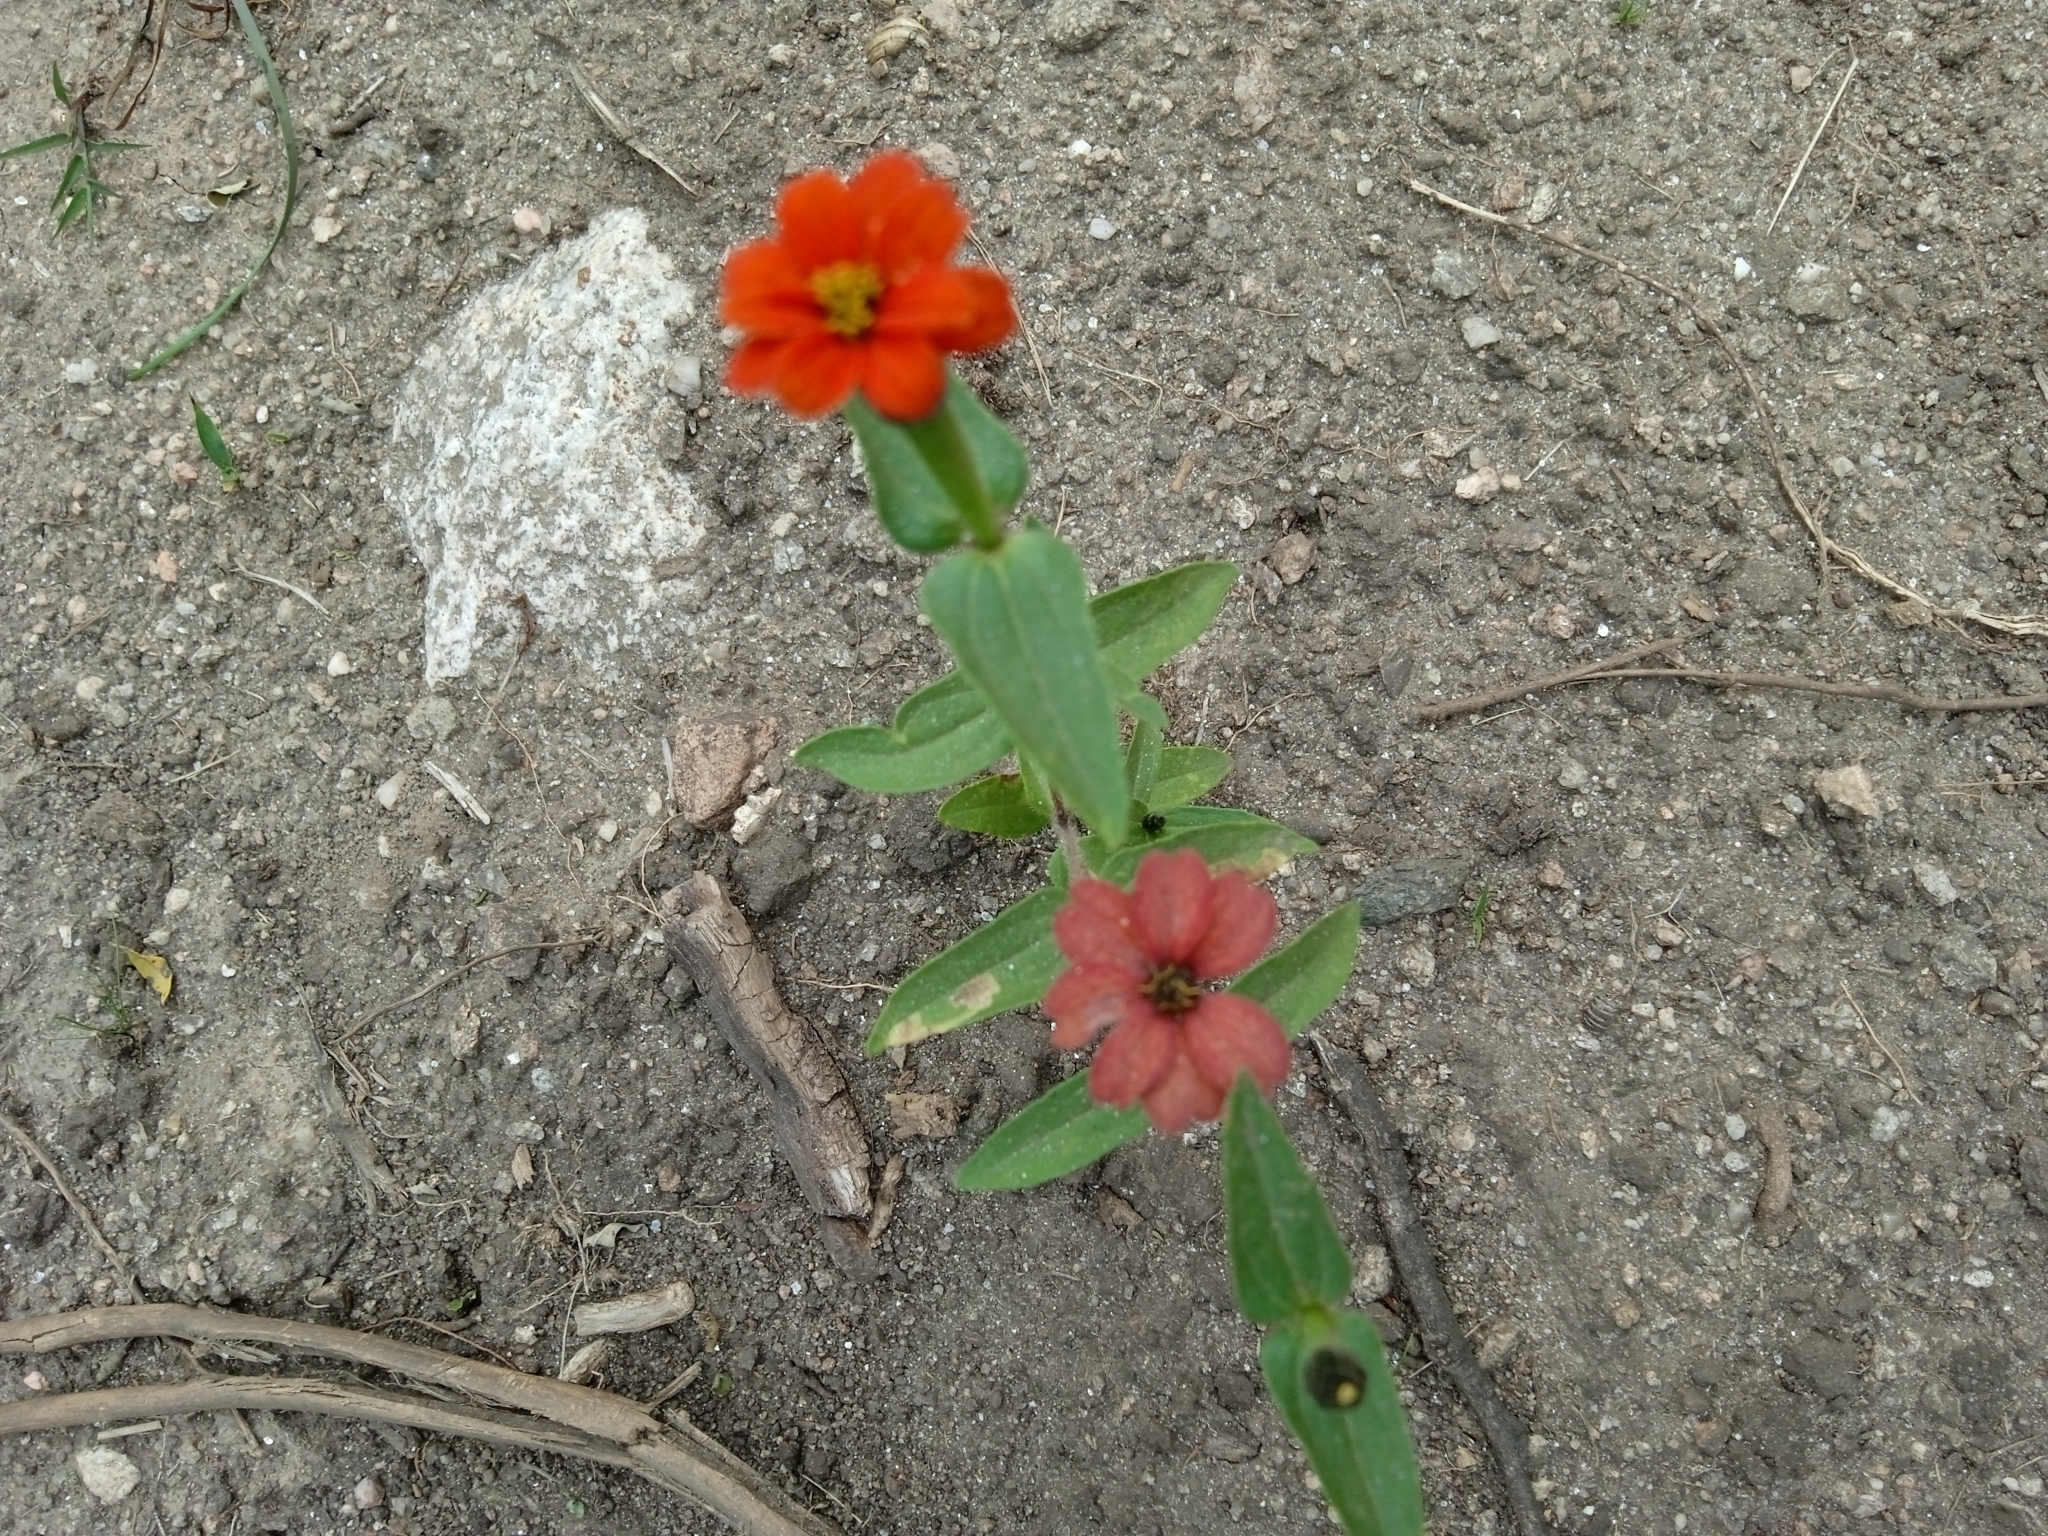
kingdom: Plantae
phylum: Tracheophyta
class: Magnoliopsida
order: Asterales
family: Asteraceae
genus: Zinnia
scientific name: Zinnia peruviana
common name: Peruvian zinnia
